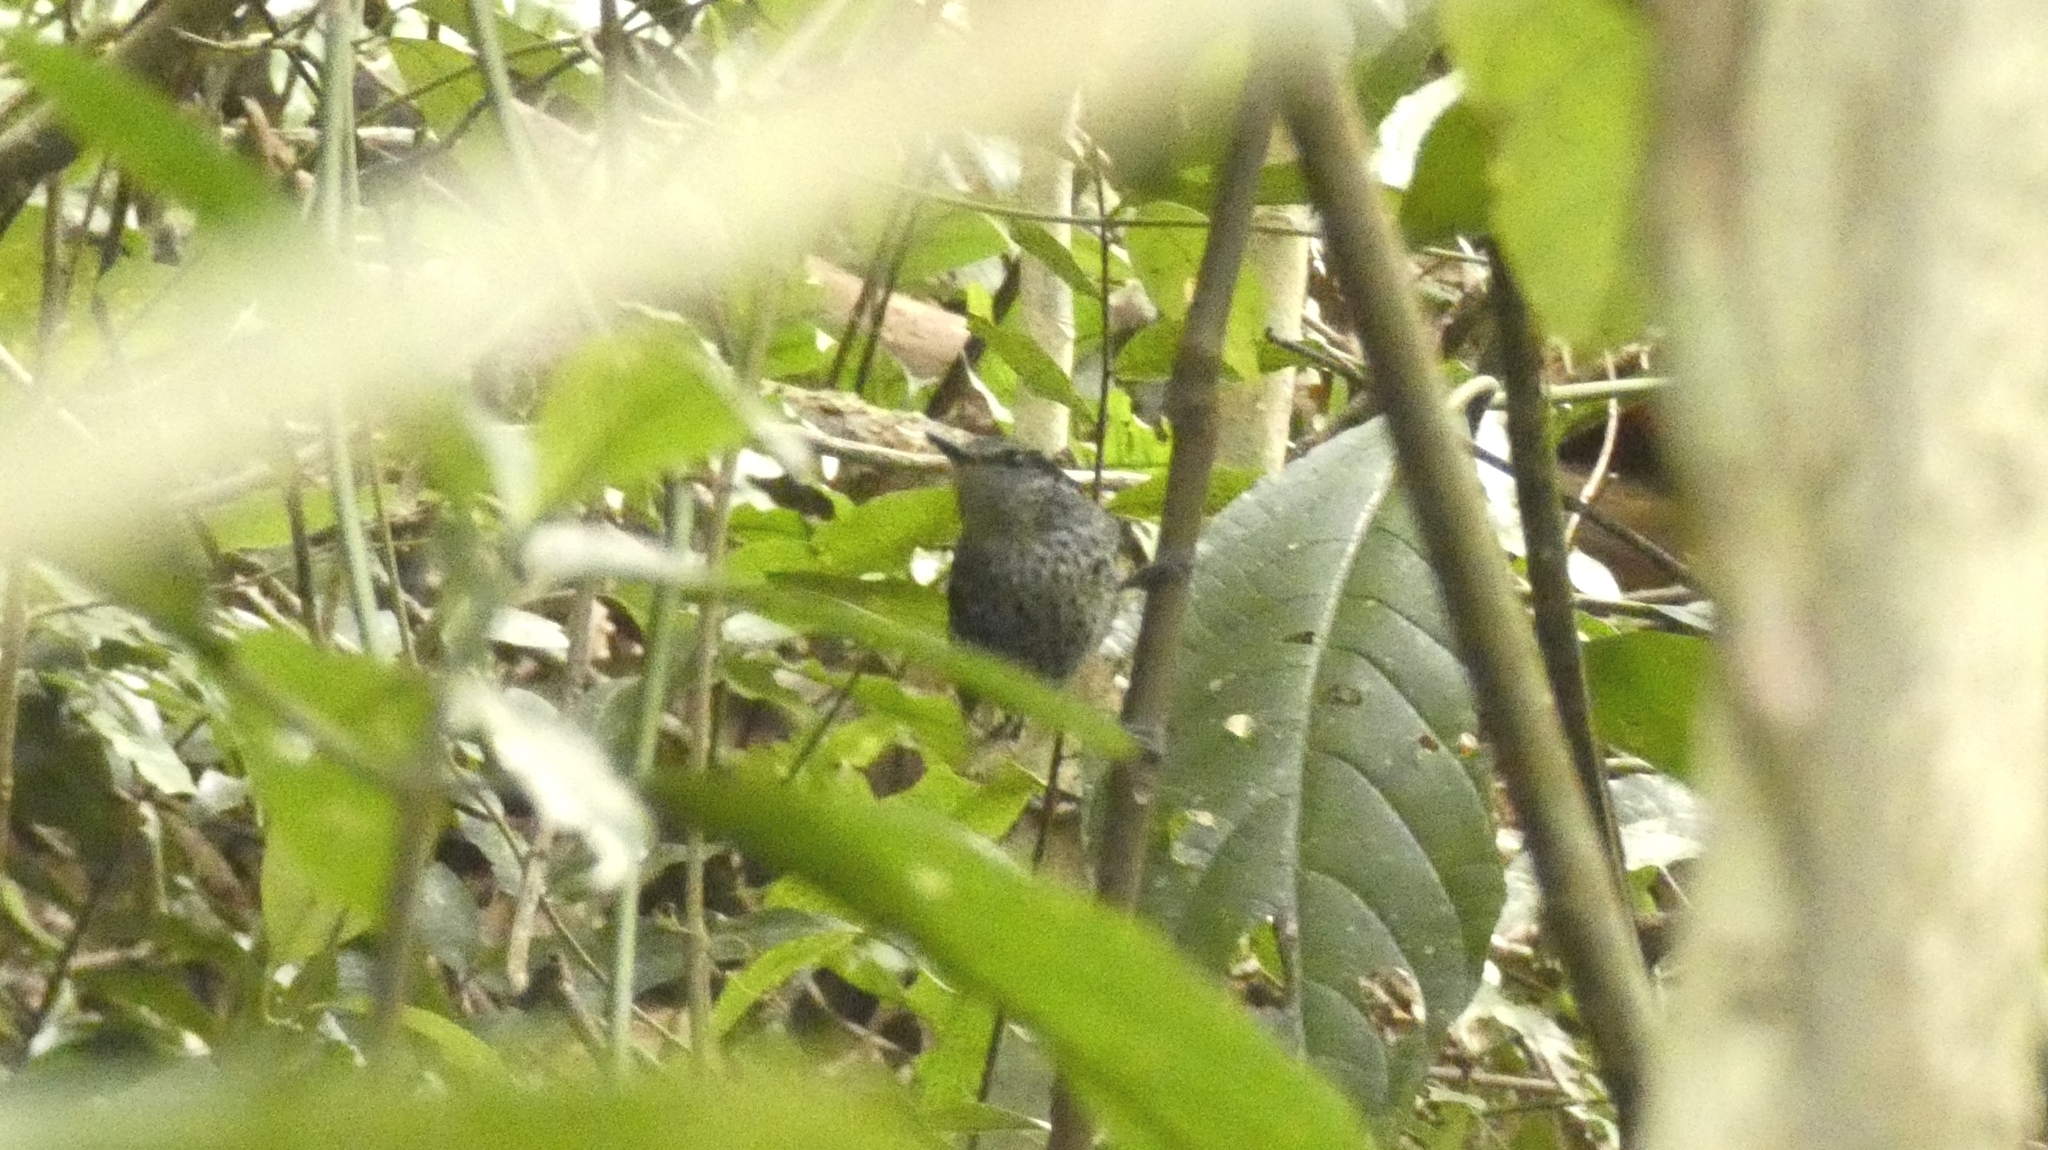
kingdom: Animalia
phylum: Chordata
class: Aves
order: Passeriformes
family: Thamnophilidae
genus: Drymophila
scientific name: Drymophila squamata
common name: Scaled antbird
